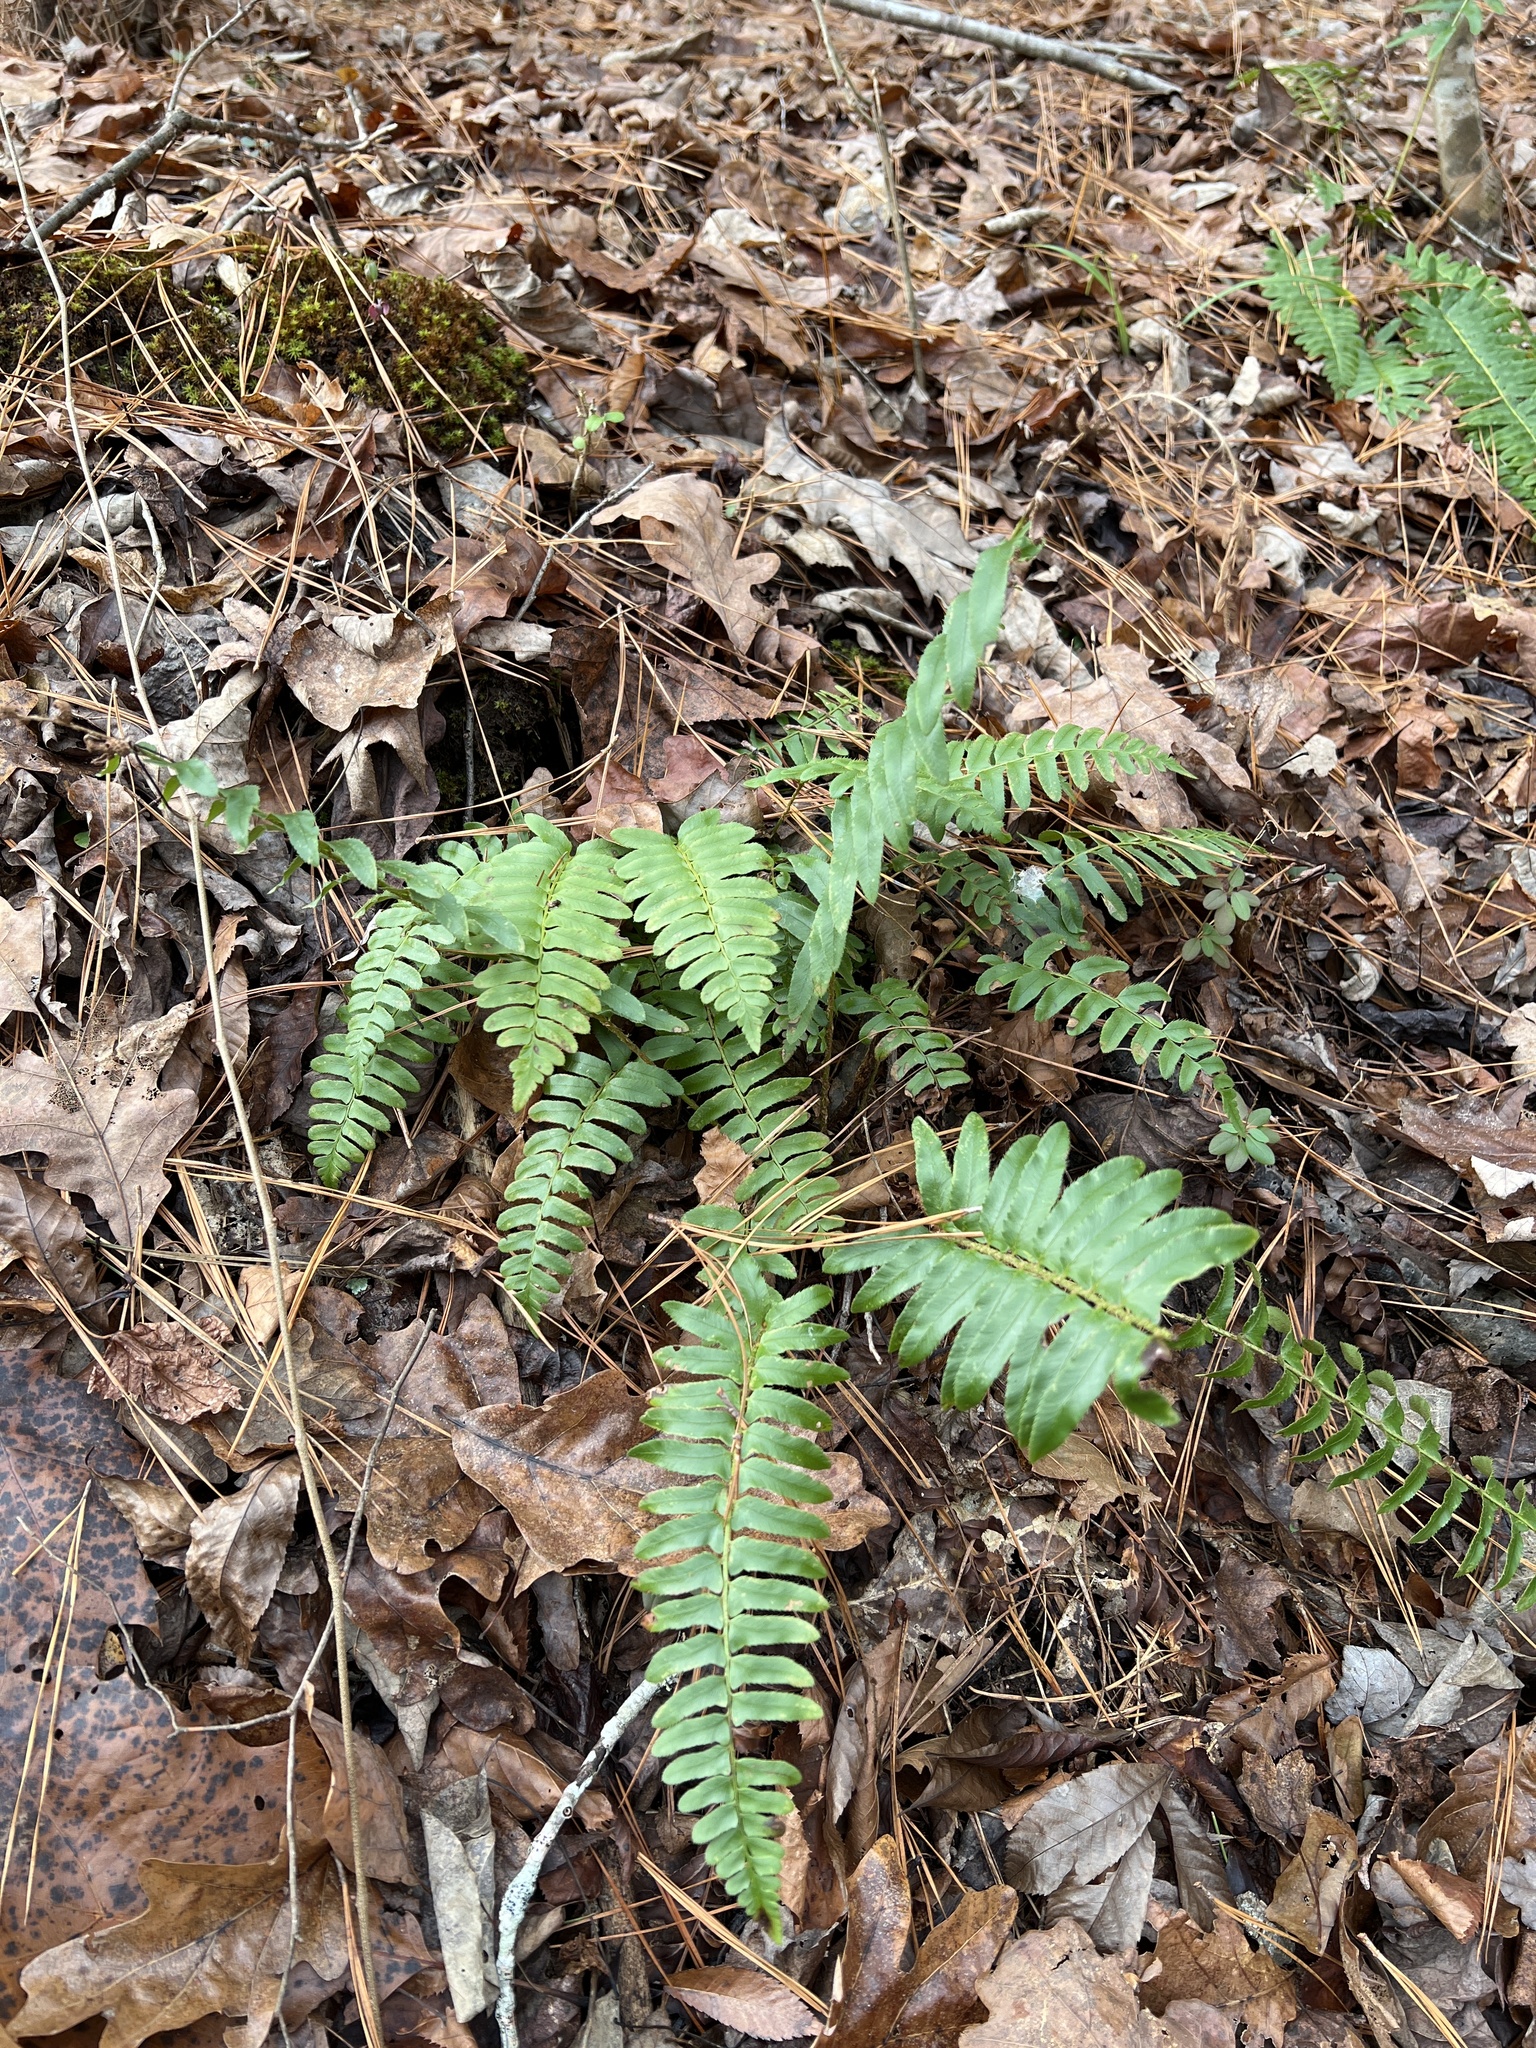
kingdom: Plantae
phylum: Tracheophyta
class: Polypodiopsida
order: Polypodiales
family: Dryopteridaceae
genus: Polystichum
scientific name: Polystichum acrostichoides
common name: Christmas fern
